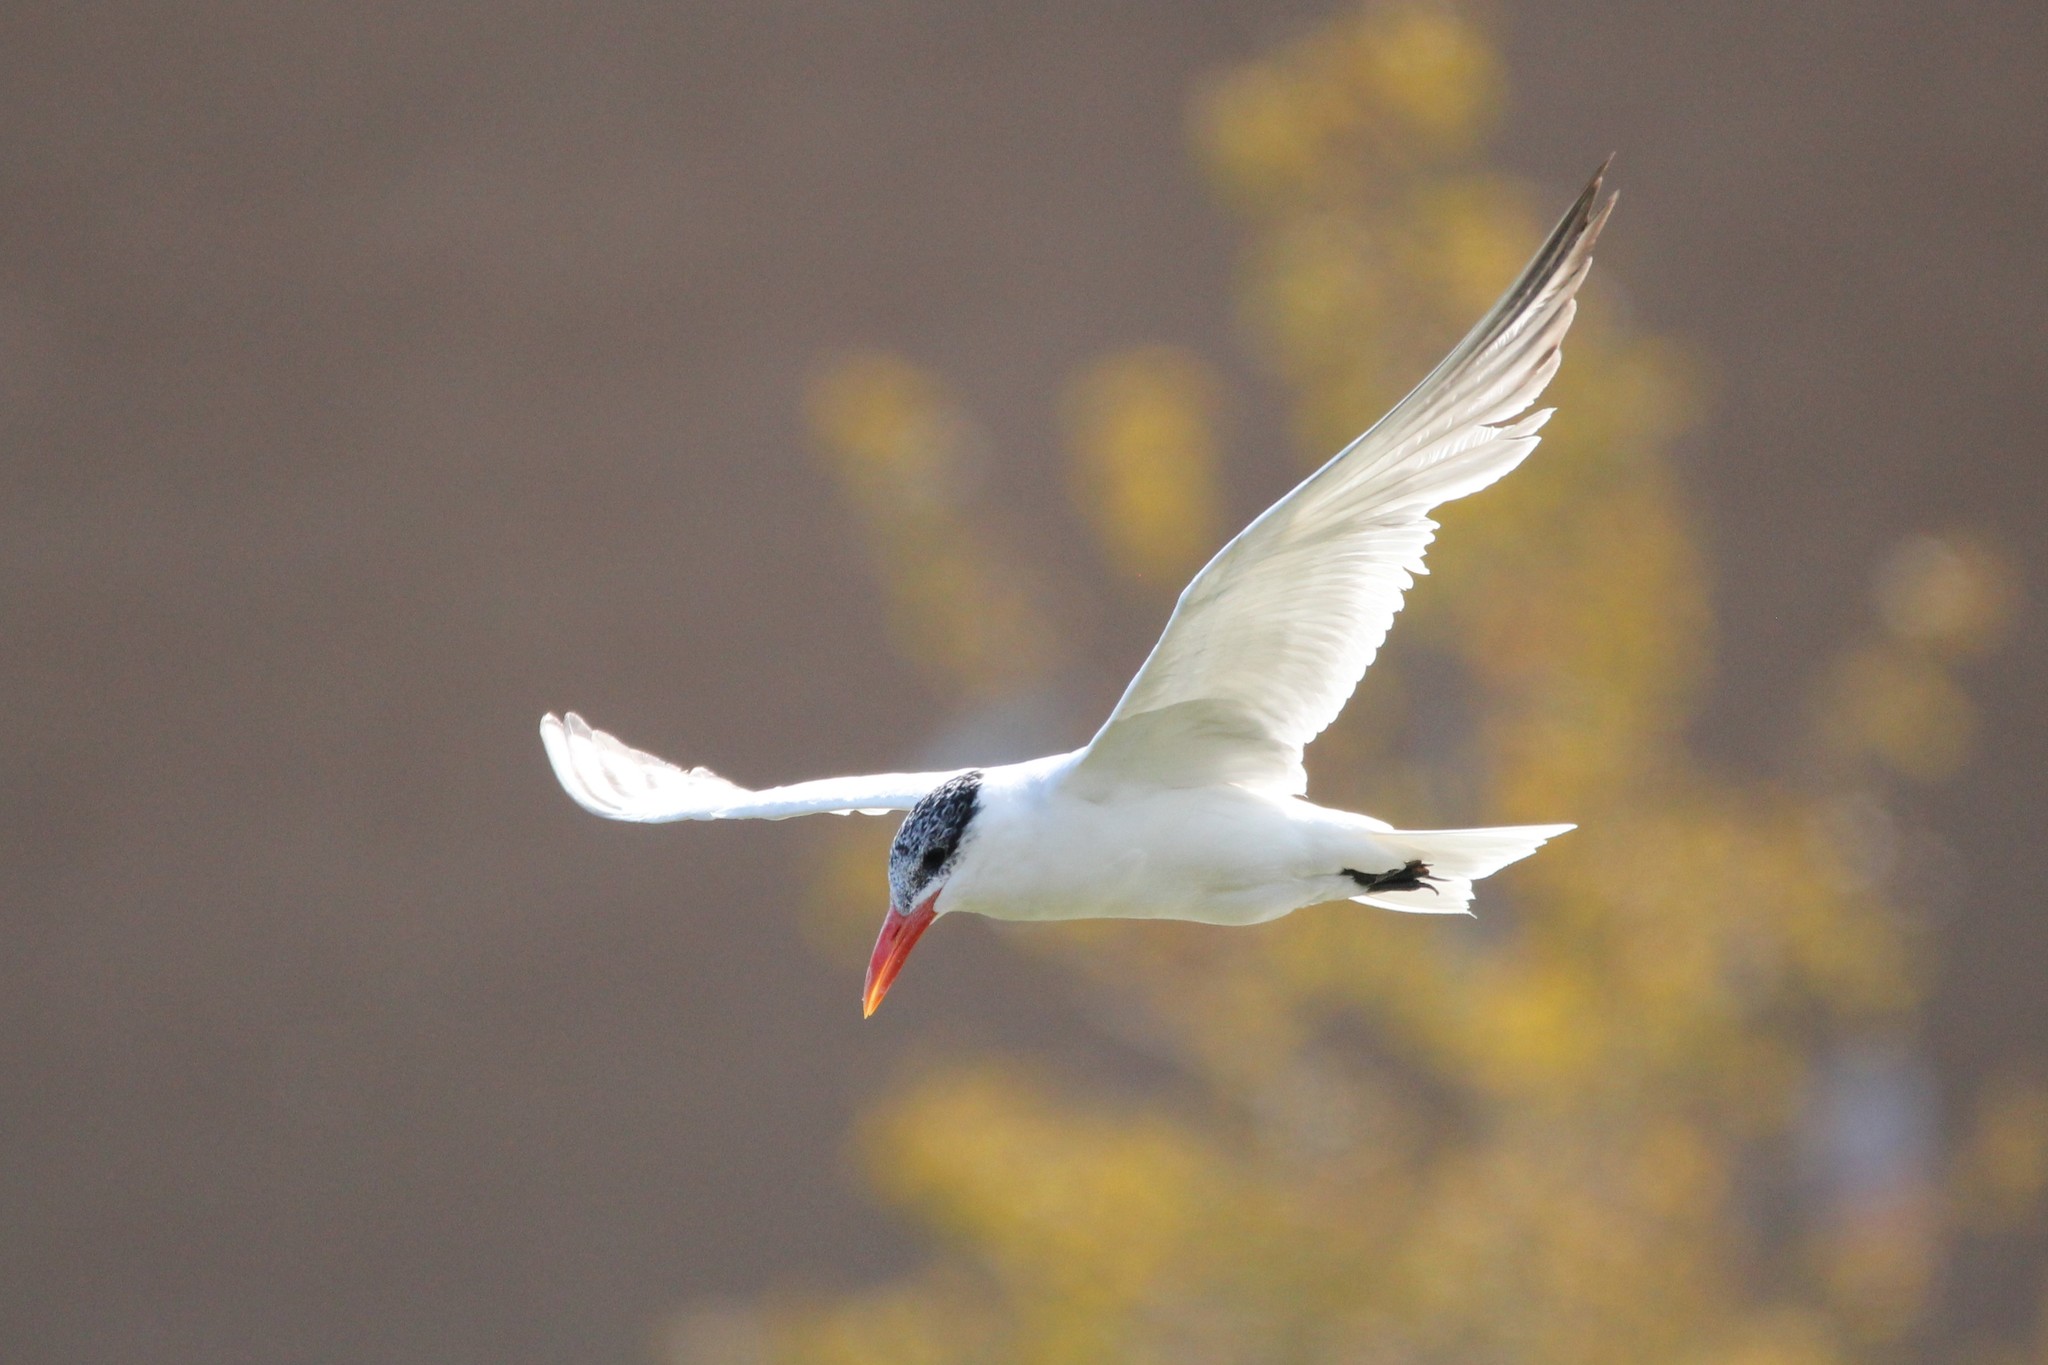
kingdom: Animalia
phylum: Chordata
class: Aves
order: Charadriiformes
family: Laridae
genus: Hydroprogne
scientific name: Hydroprogne caspia
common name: Caspian tern
